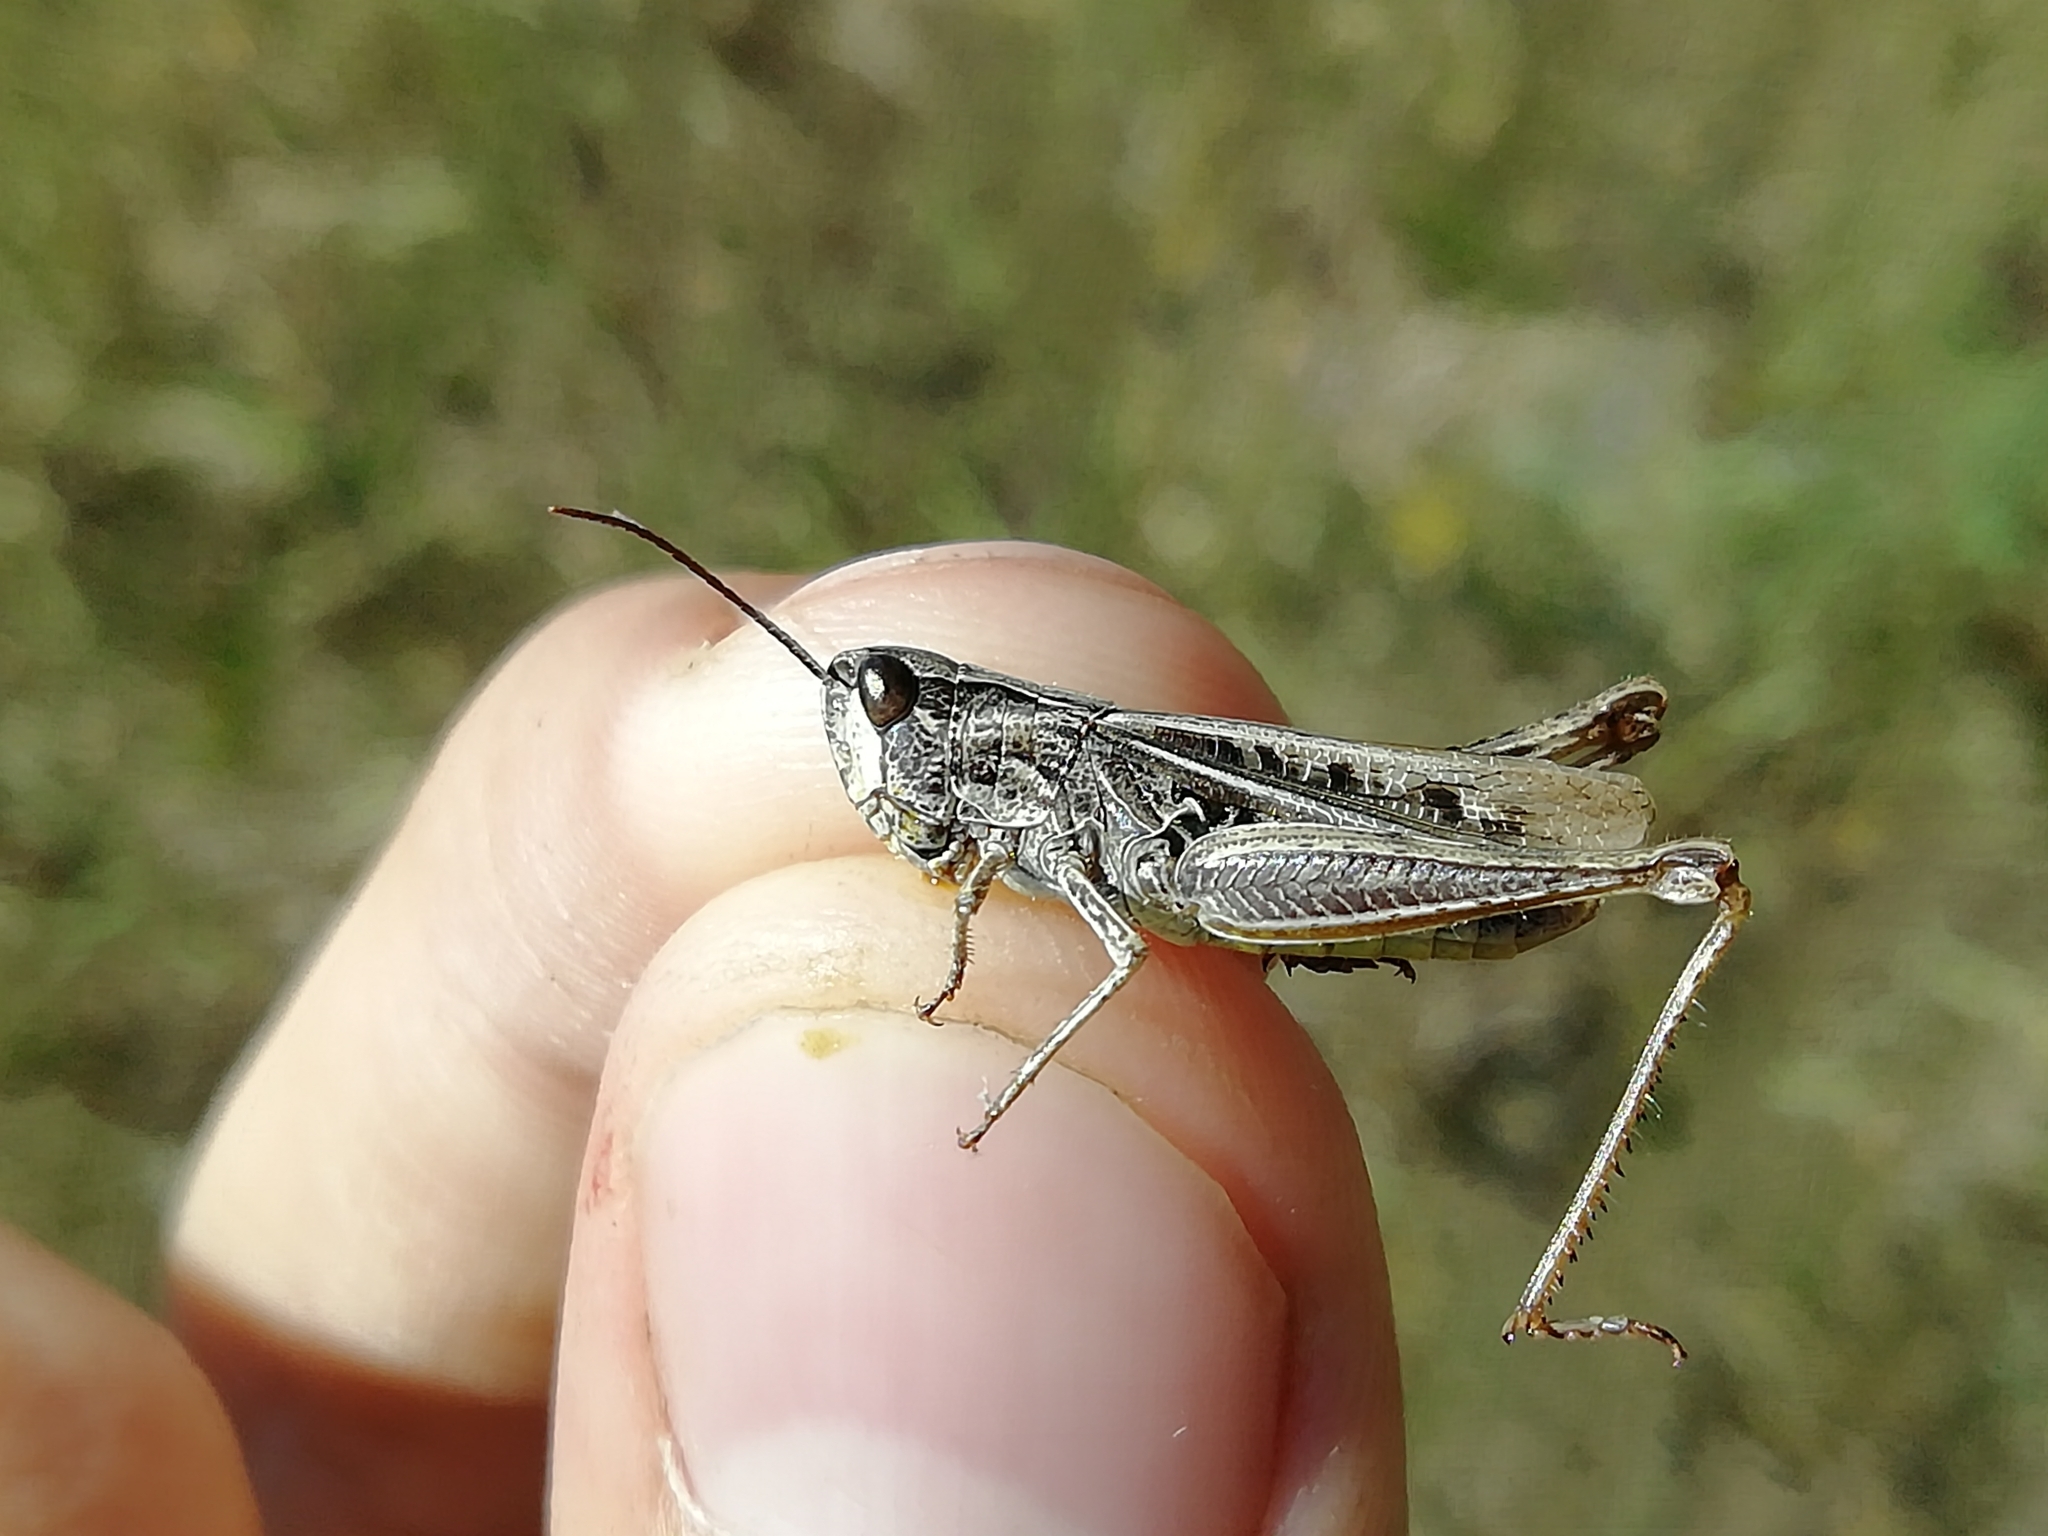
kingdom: Animalia
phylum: Arthropoda
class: Insecta
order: Orthoptera
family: Acrididae
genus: Chorthippus
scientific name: Chorthippus apricarius
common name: Upland field grasshopper
